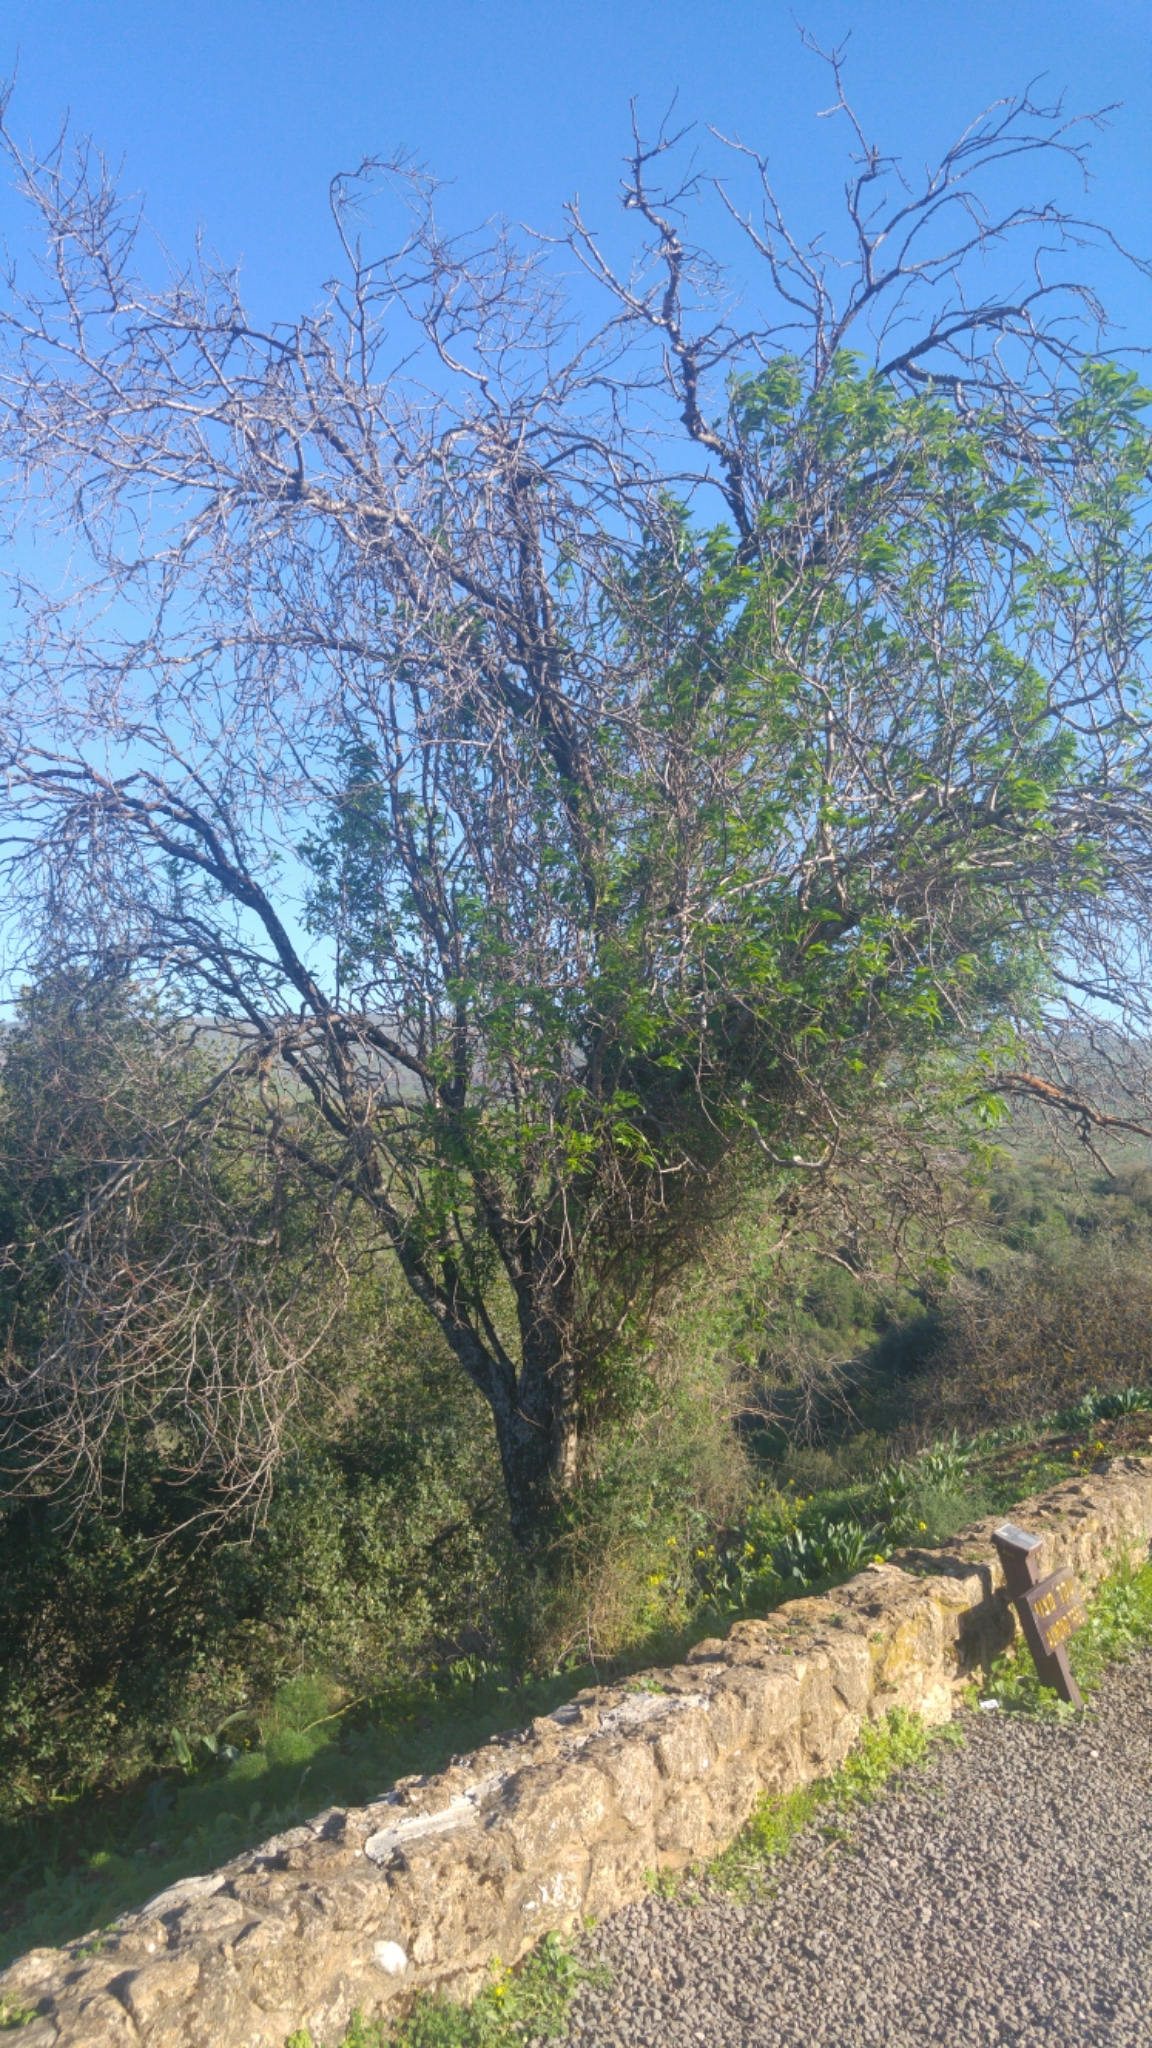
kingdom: Plantae
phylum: Tracheophyta
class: Magnoliopsida
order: Rosales
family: Rosaceae
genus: Prunus
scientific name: Prunus amygdalus
